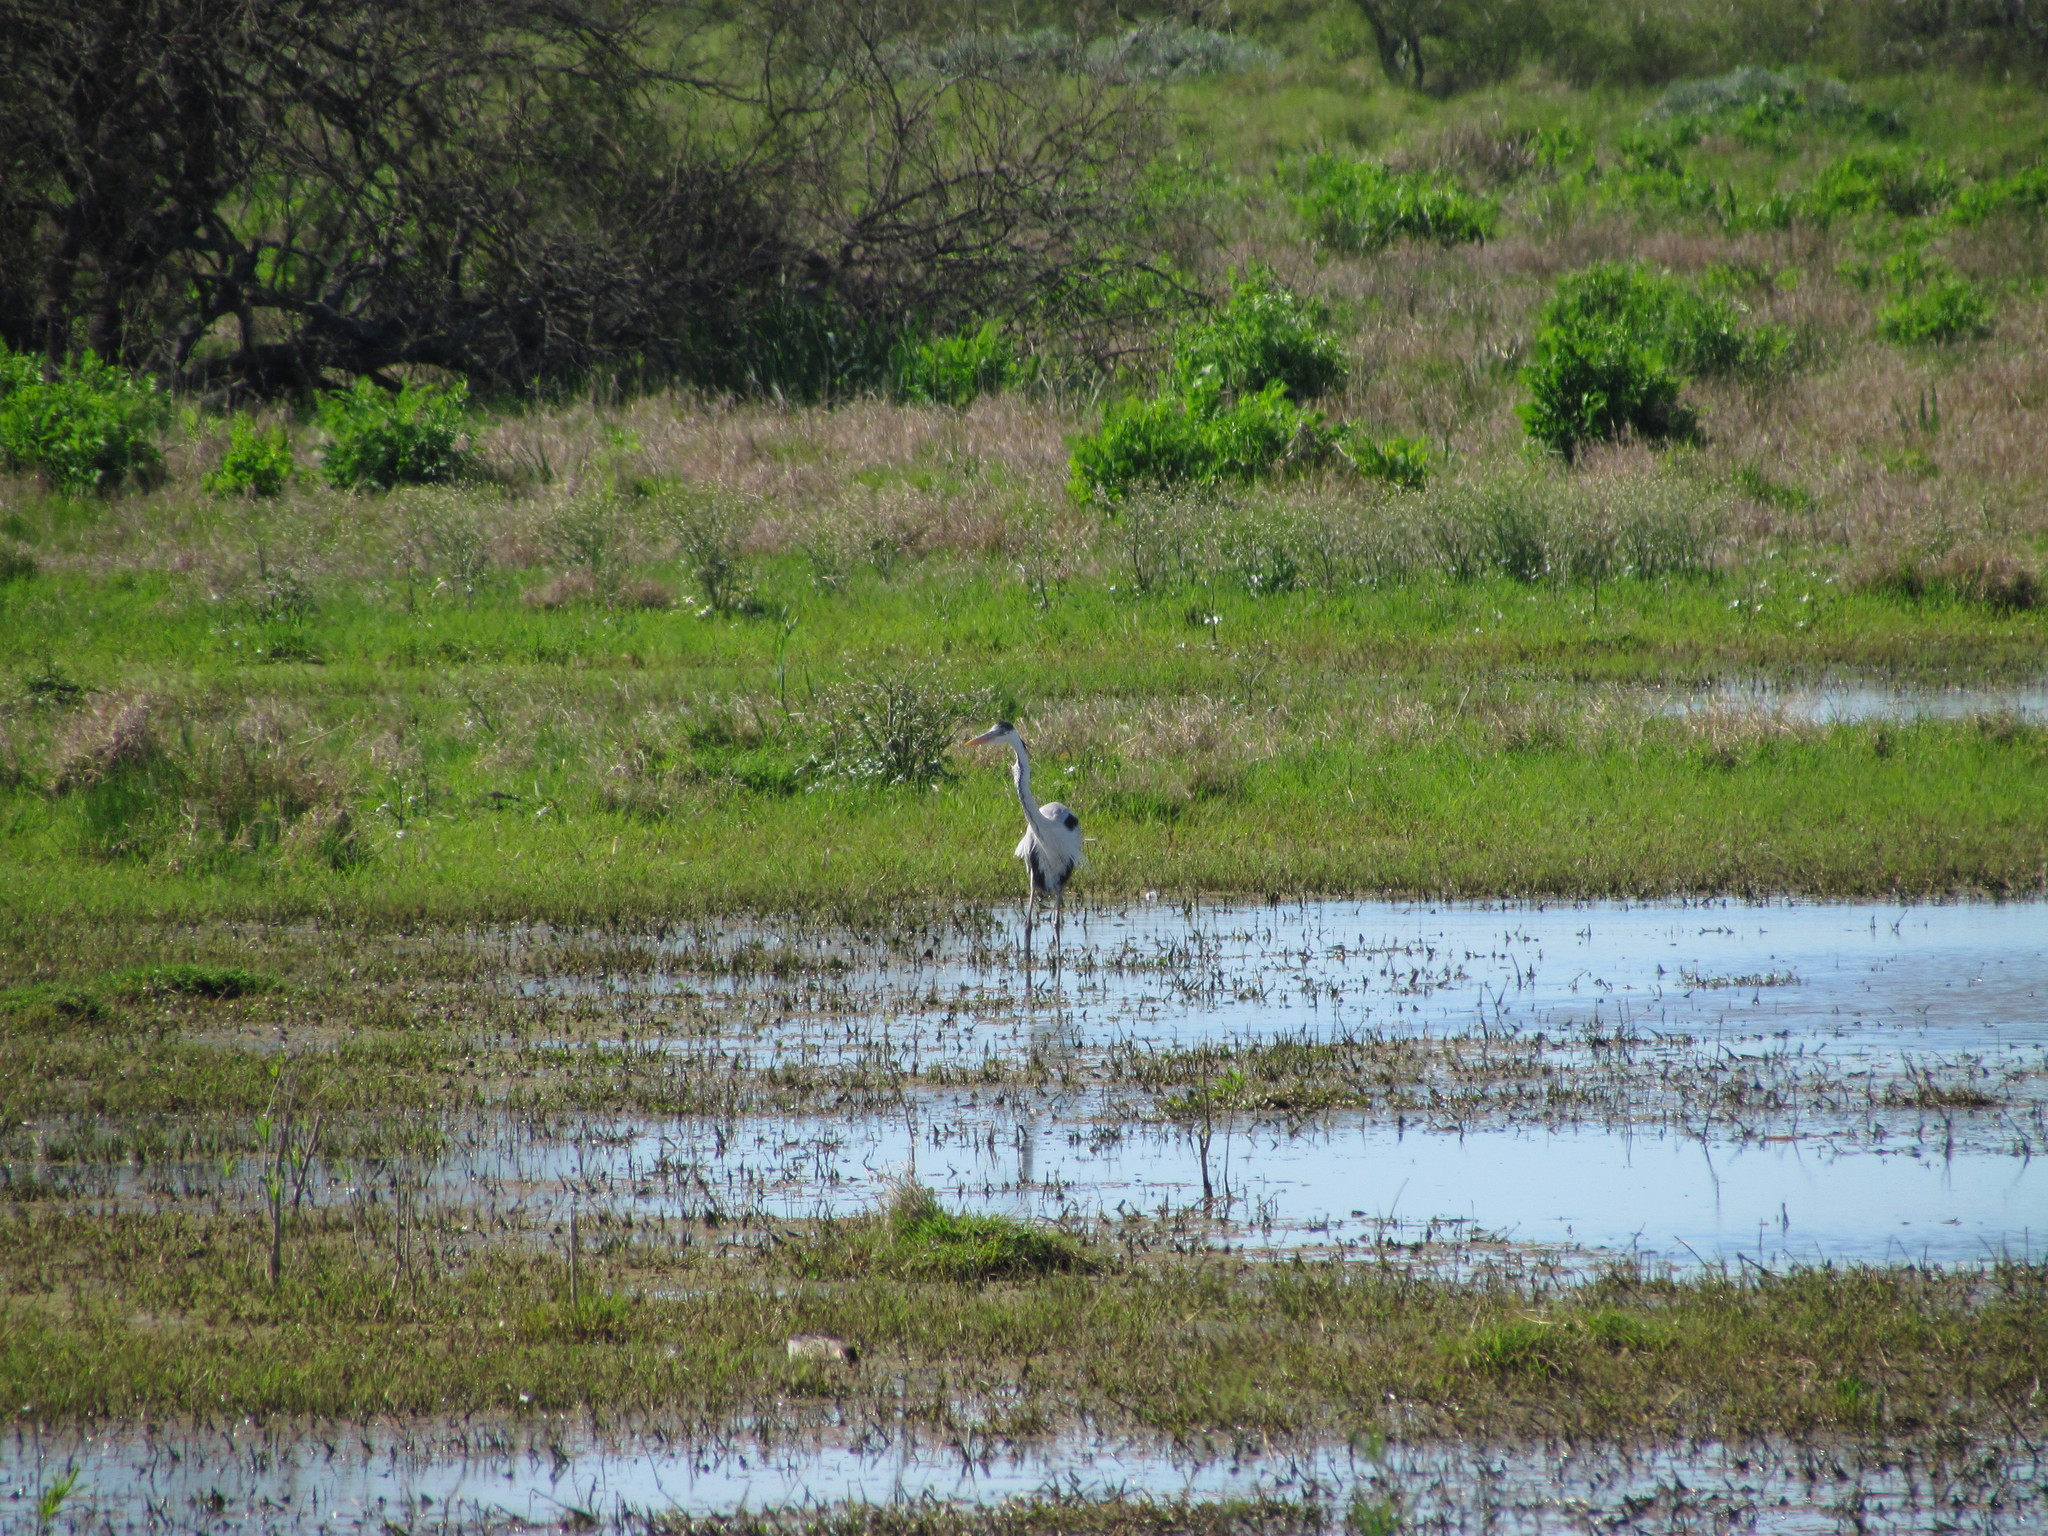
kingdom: Animalia
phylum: Chordata
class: Aves
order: Pelecaniformes
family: Ardeidae
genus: Ardea
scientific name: Ardea cocoi
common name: Cocoi heron
